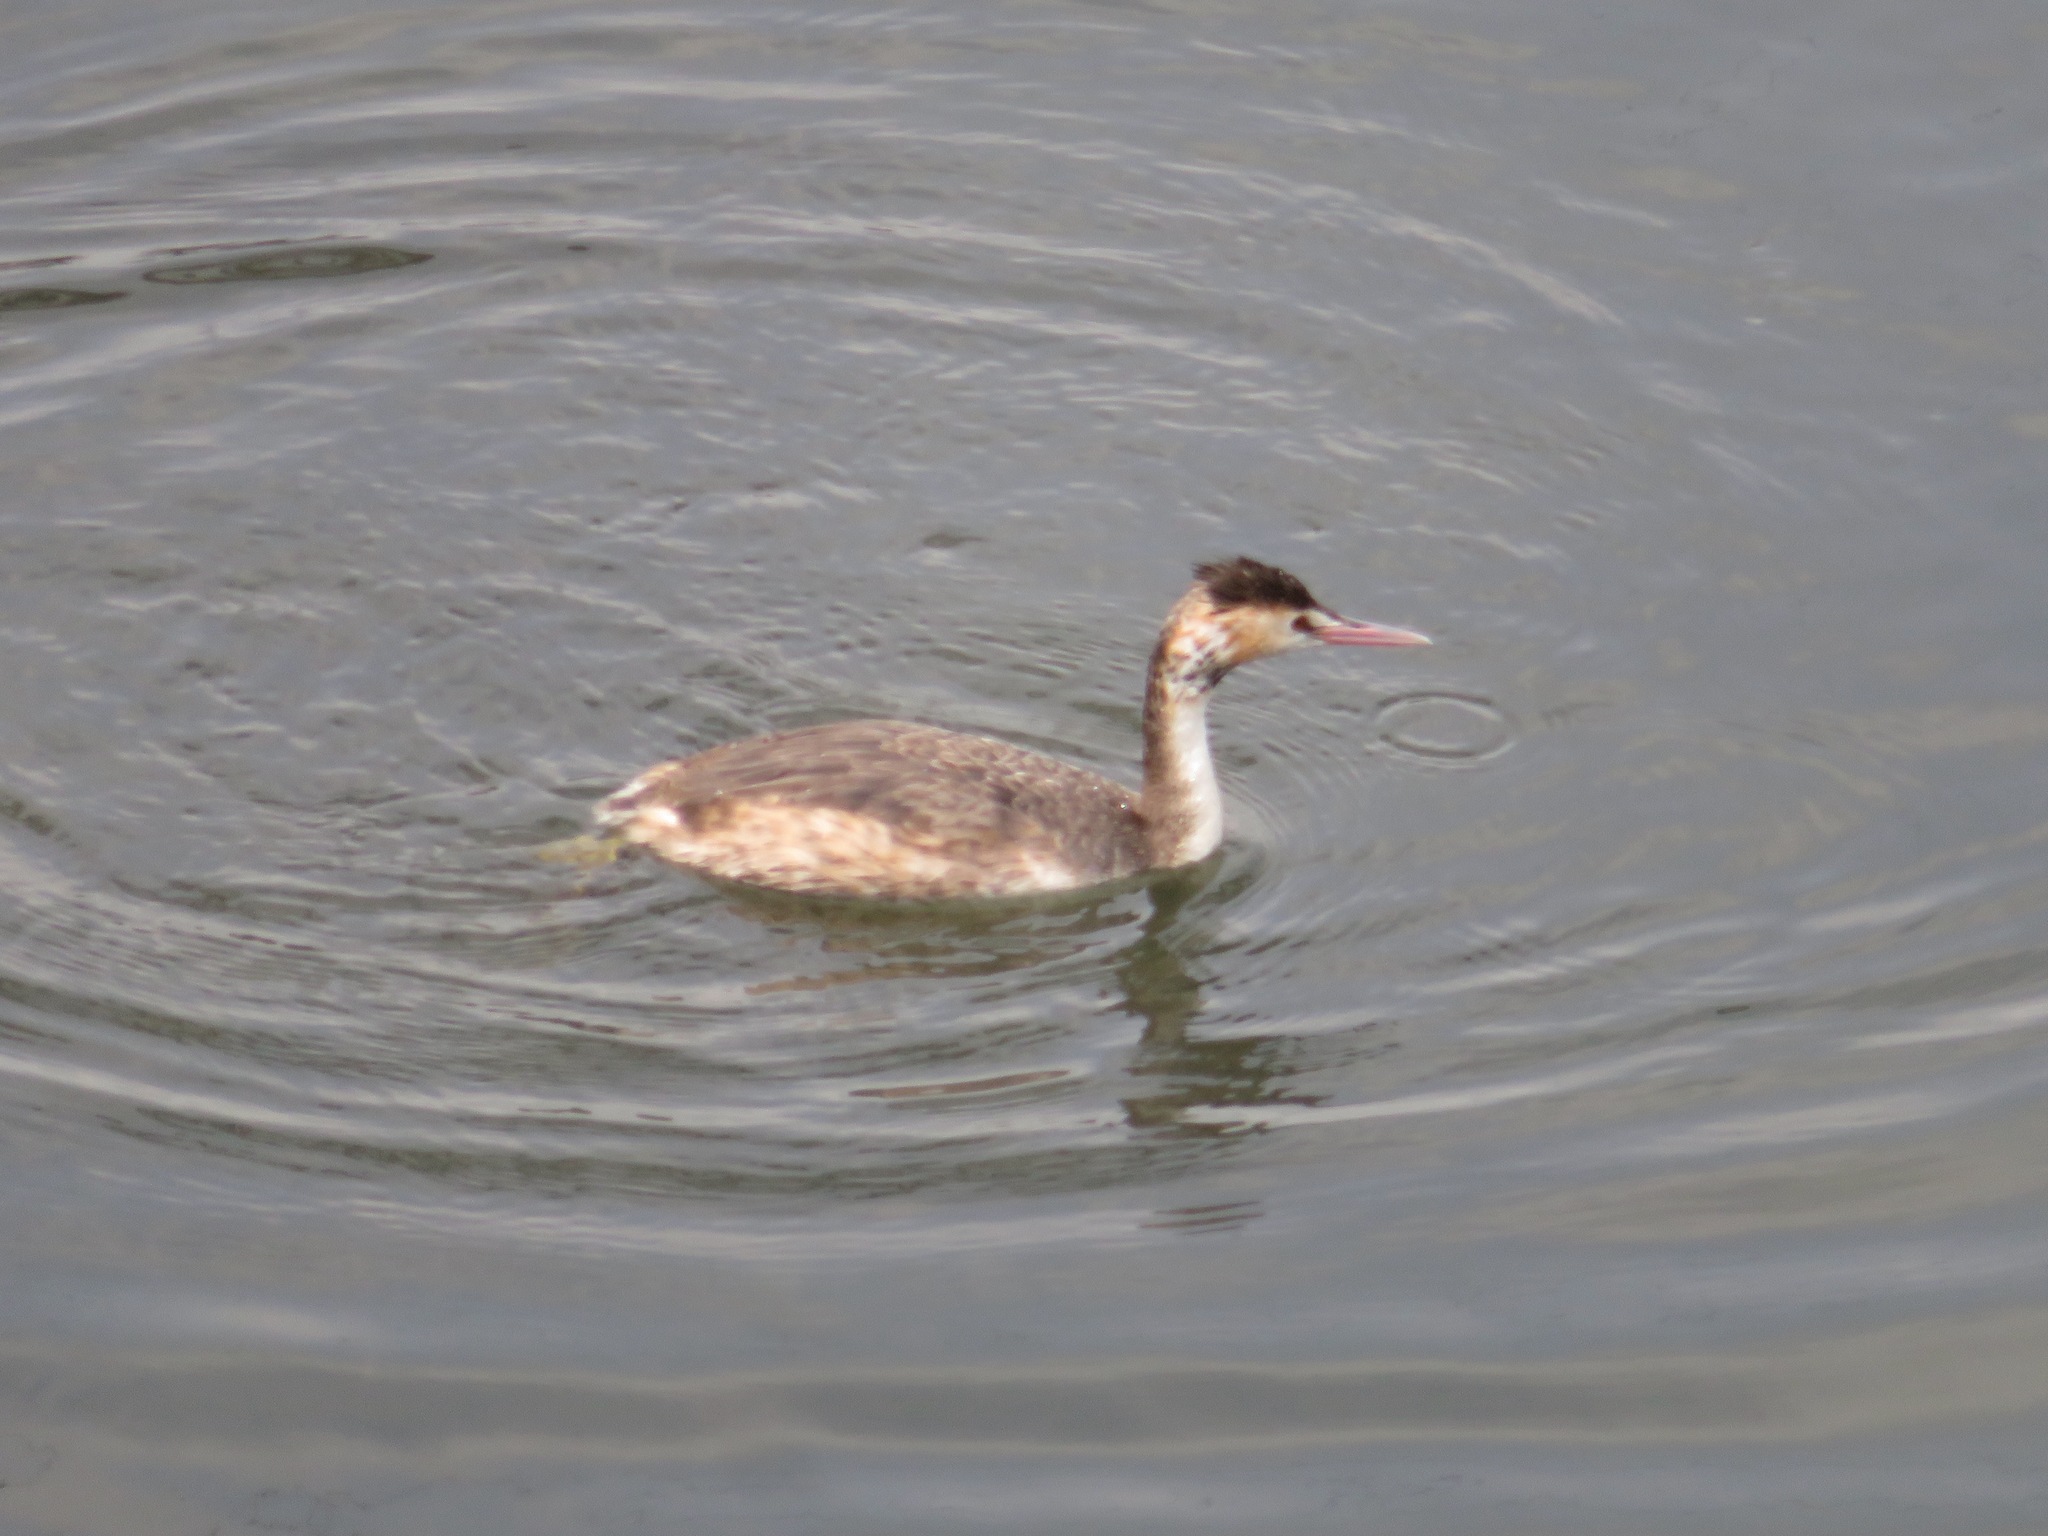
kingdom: Animalia
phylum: Chordata
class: Aves
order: Podicipediformes
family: Podicipedidae
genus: Podiceps
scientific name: Podiceps cristatus
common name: Great crested grebe
